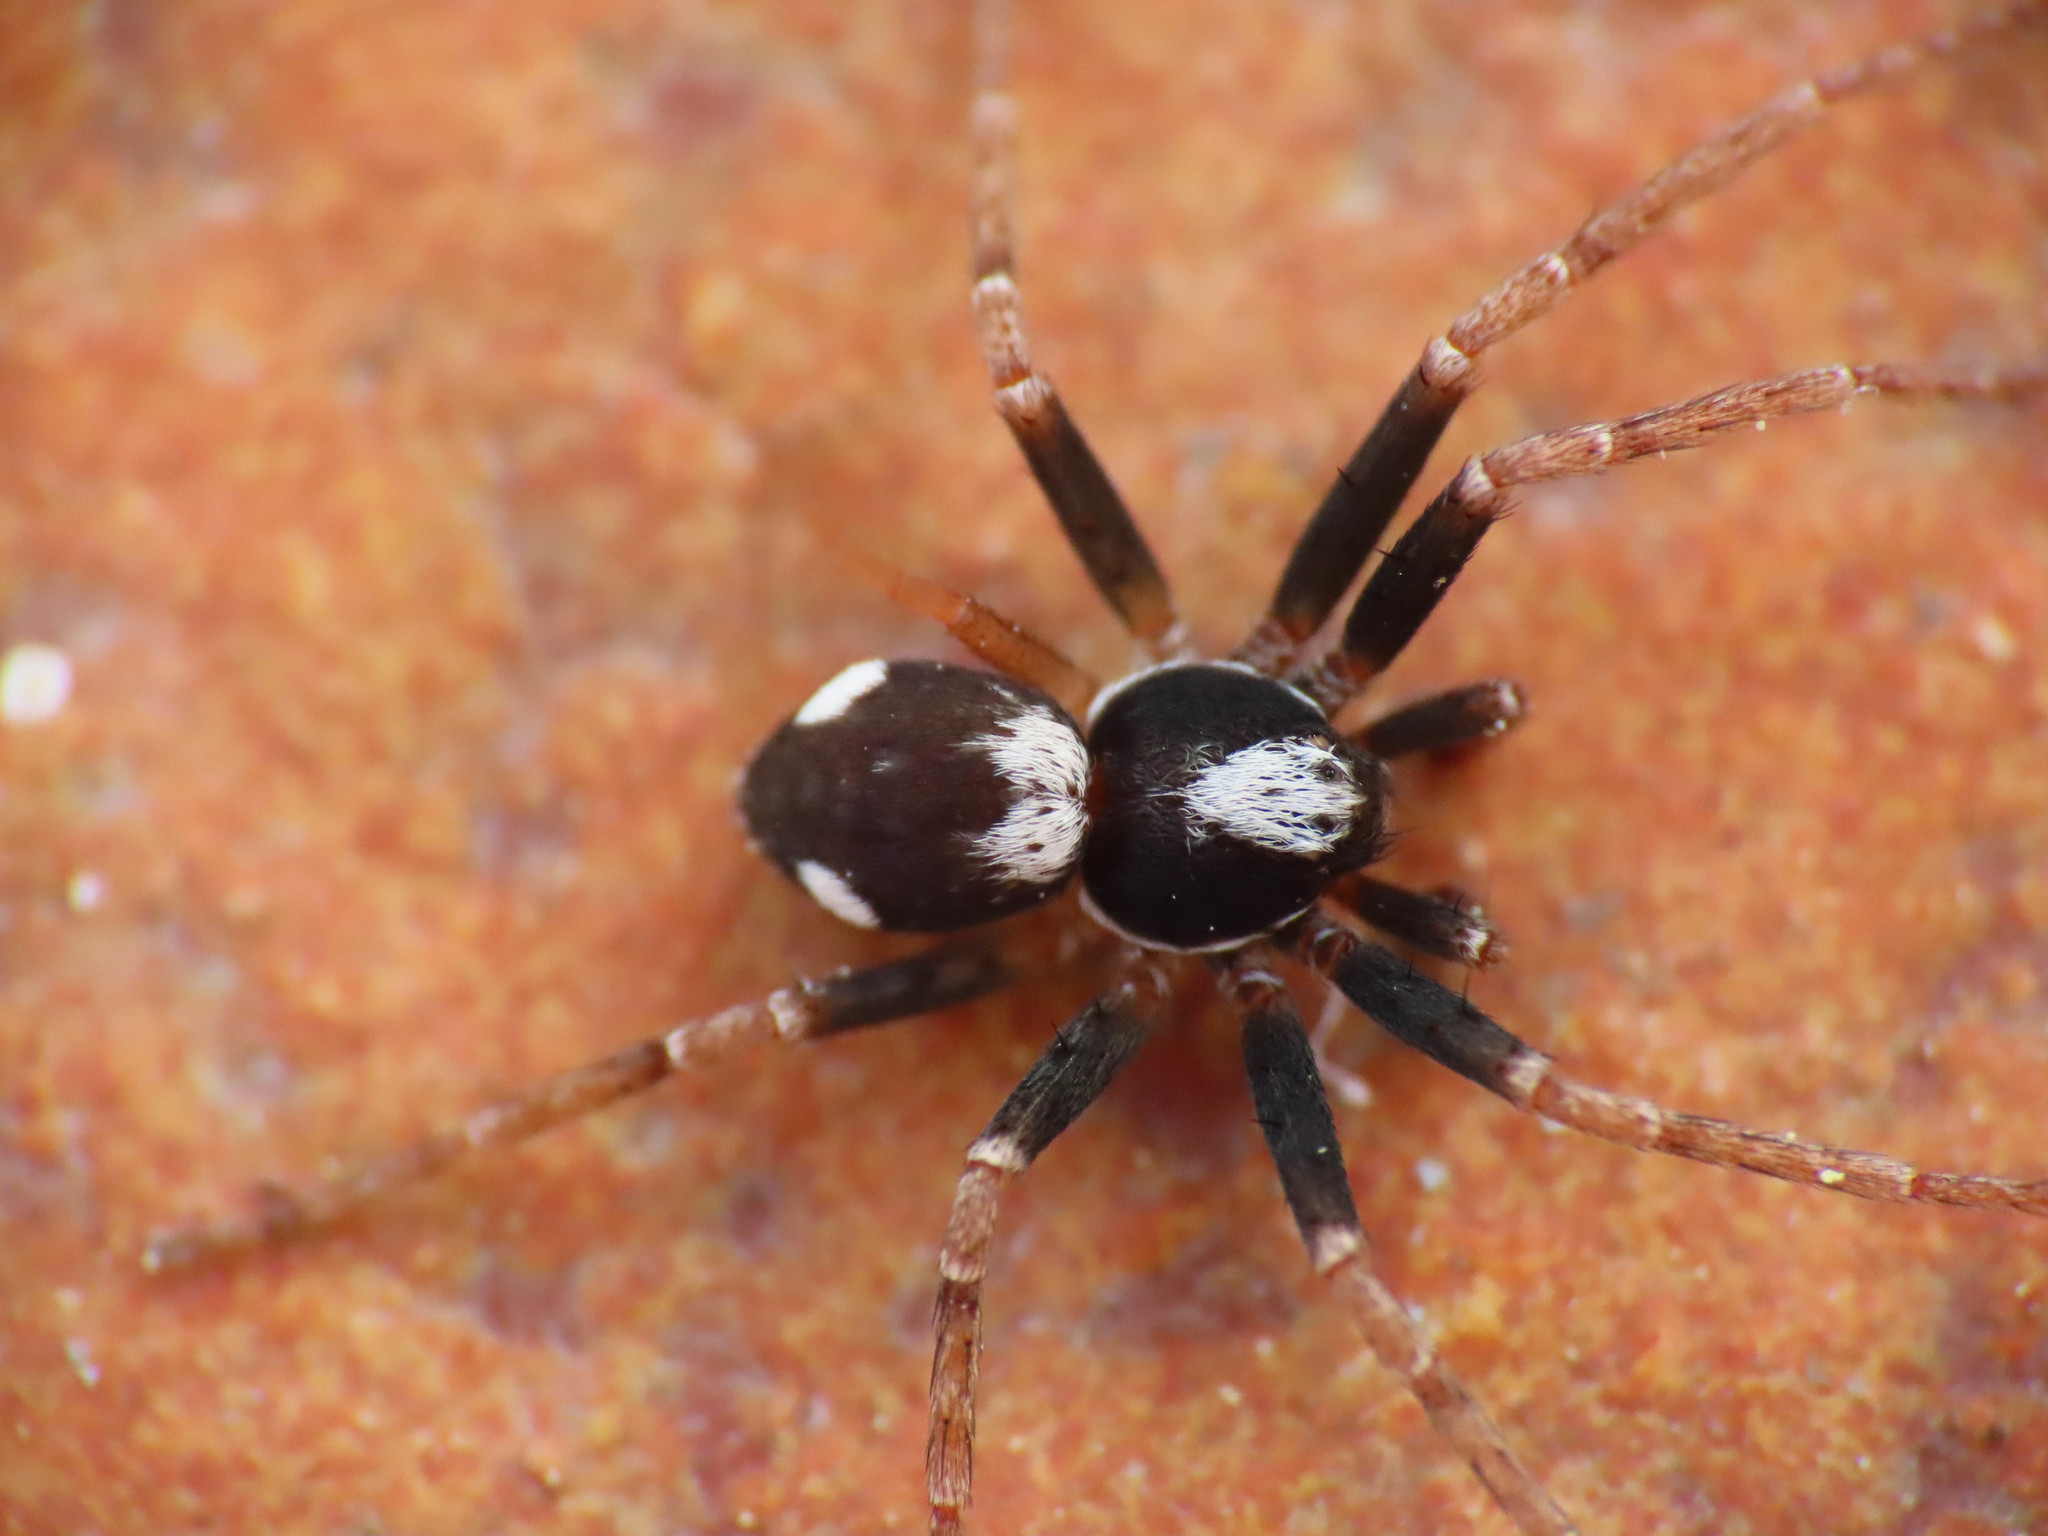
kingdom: Animalia
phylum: Arthropoda
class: Arachnida
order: Araneae
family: Philodromidae
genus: Pulchellodromus
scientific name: Pulchellodromus bistigma
